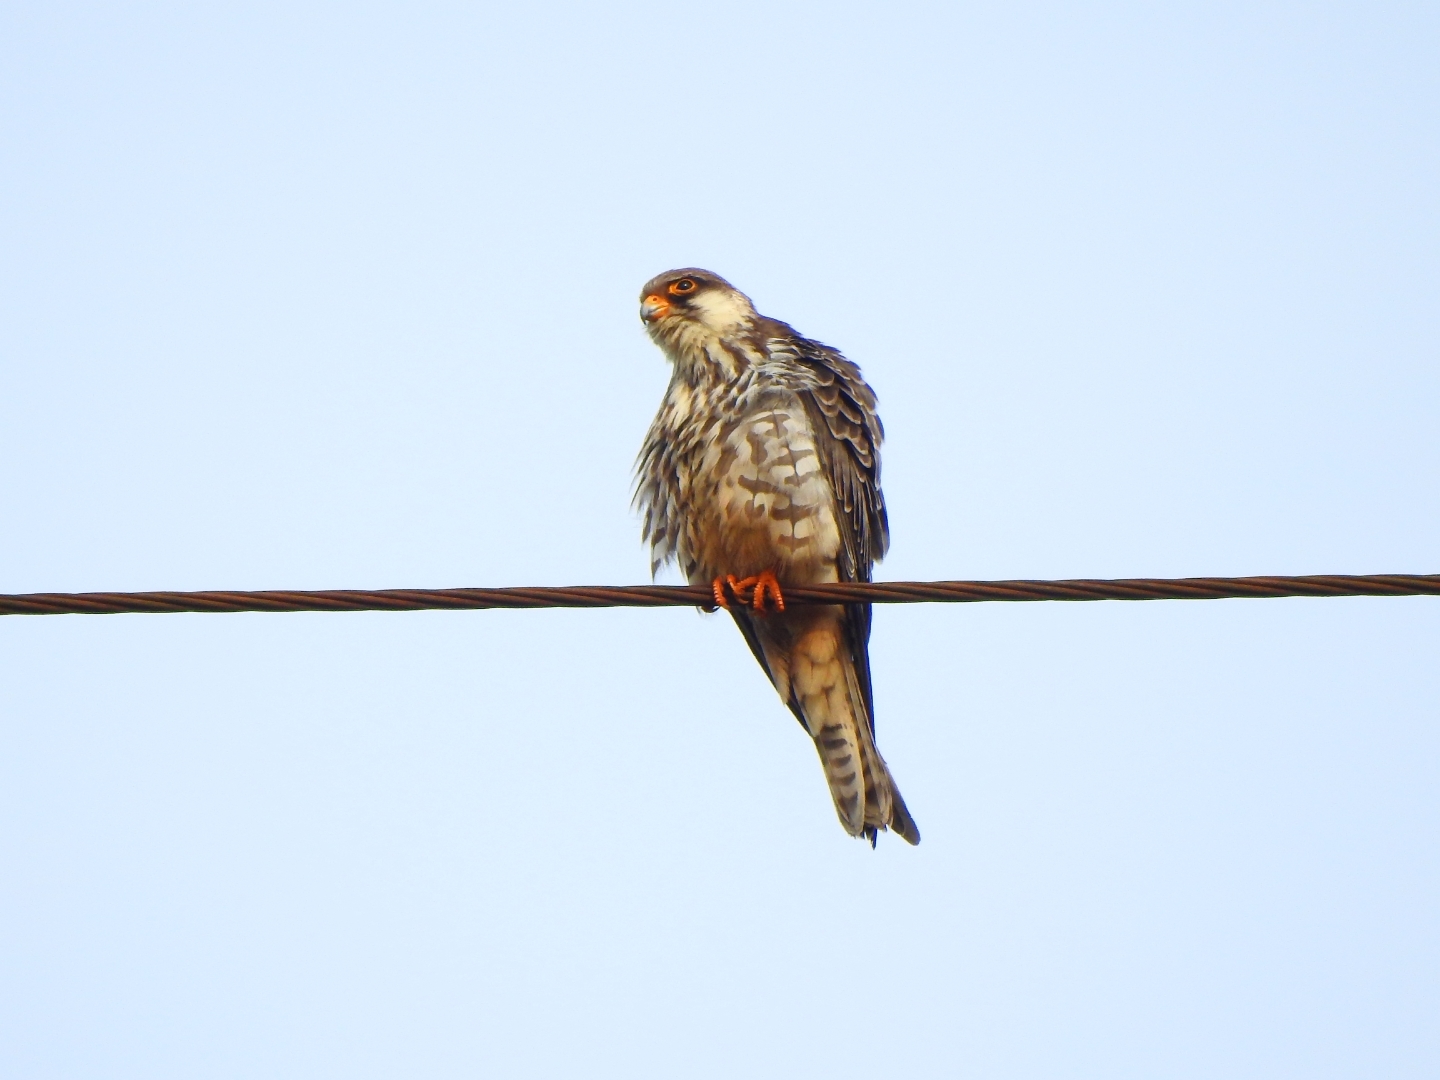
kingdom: Animalia
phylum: Chordata
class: Aves
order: Falconiformes
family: Falconidae
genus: Falco
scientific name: Falco amurensis
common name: Amur falcon
